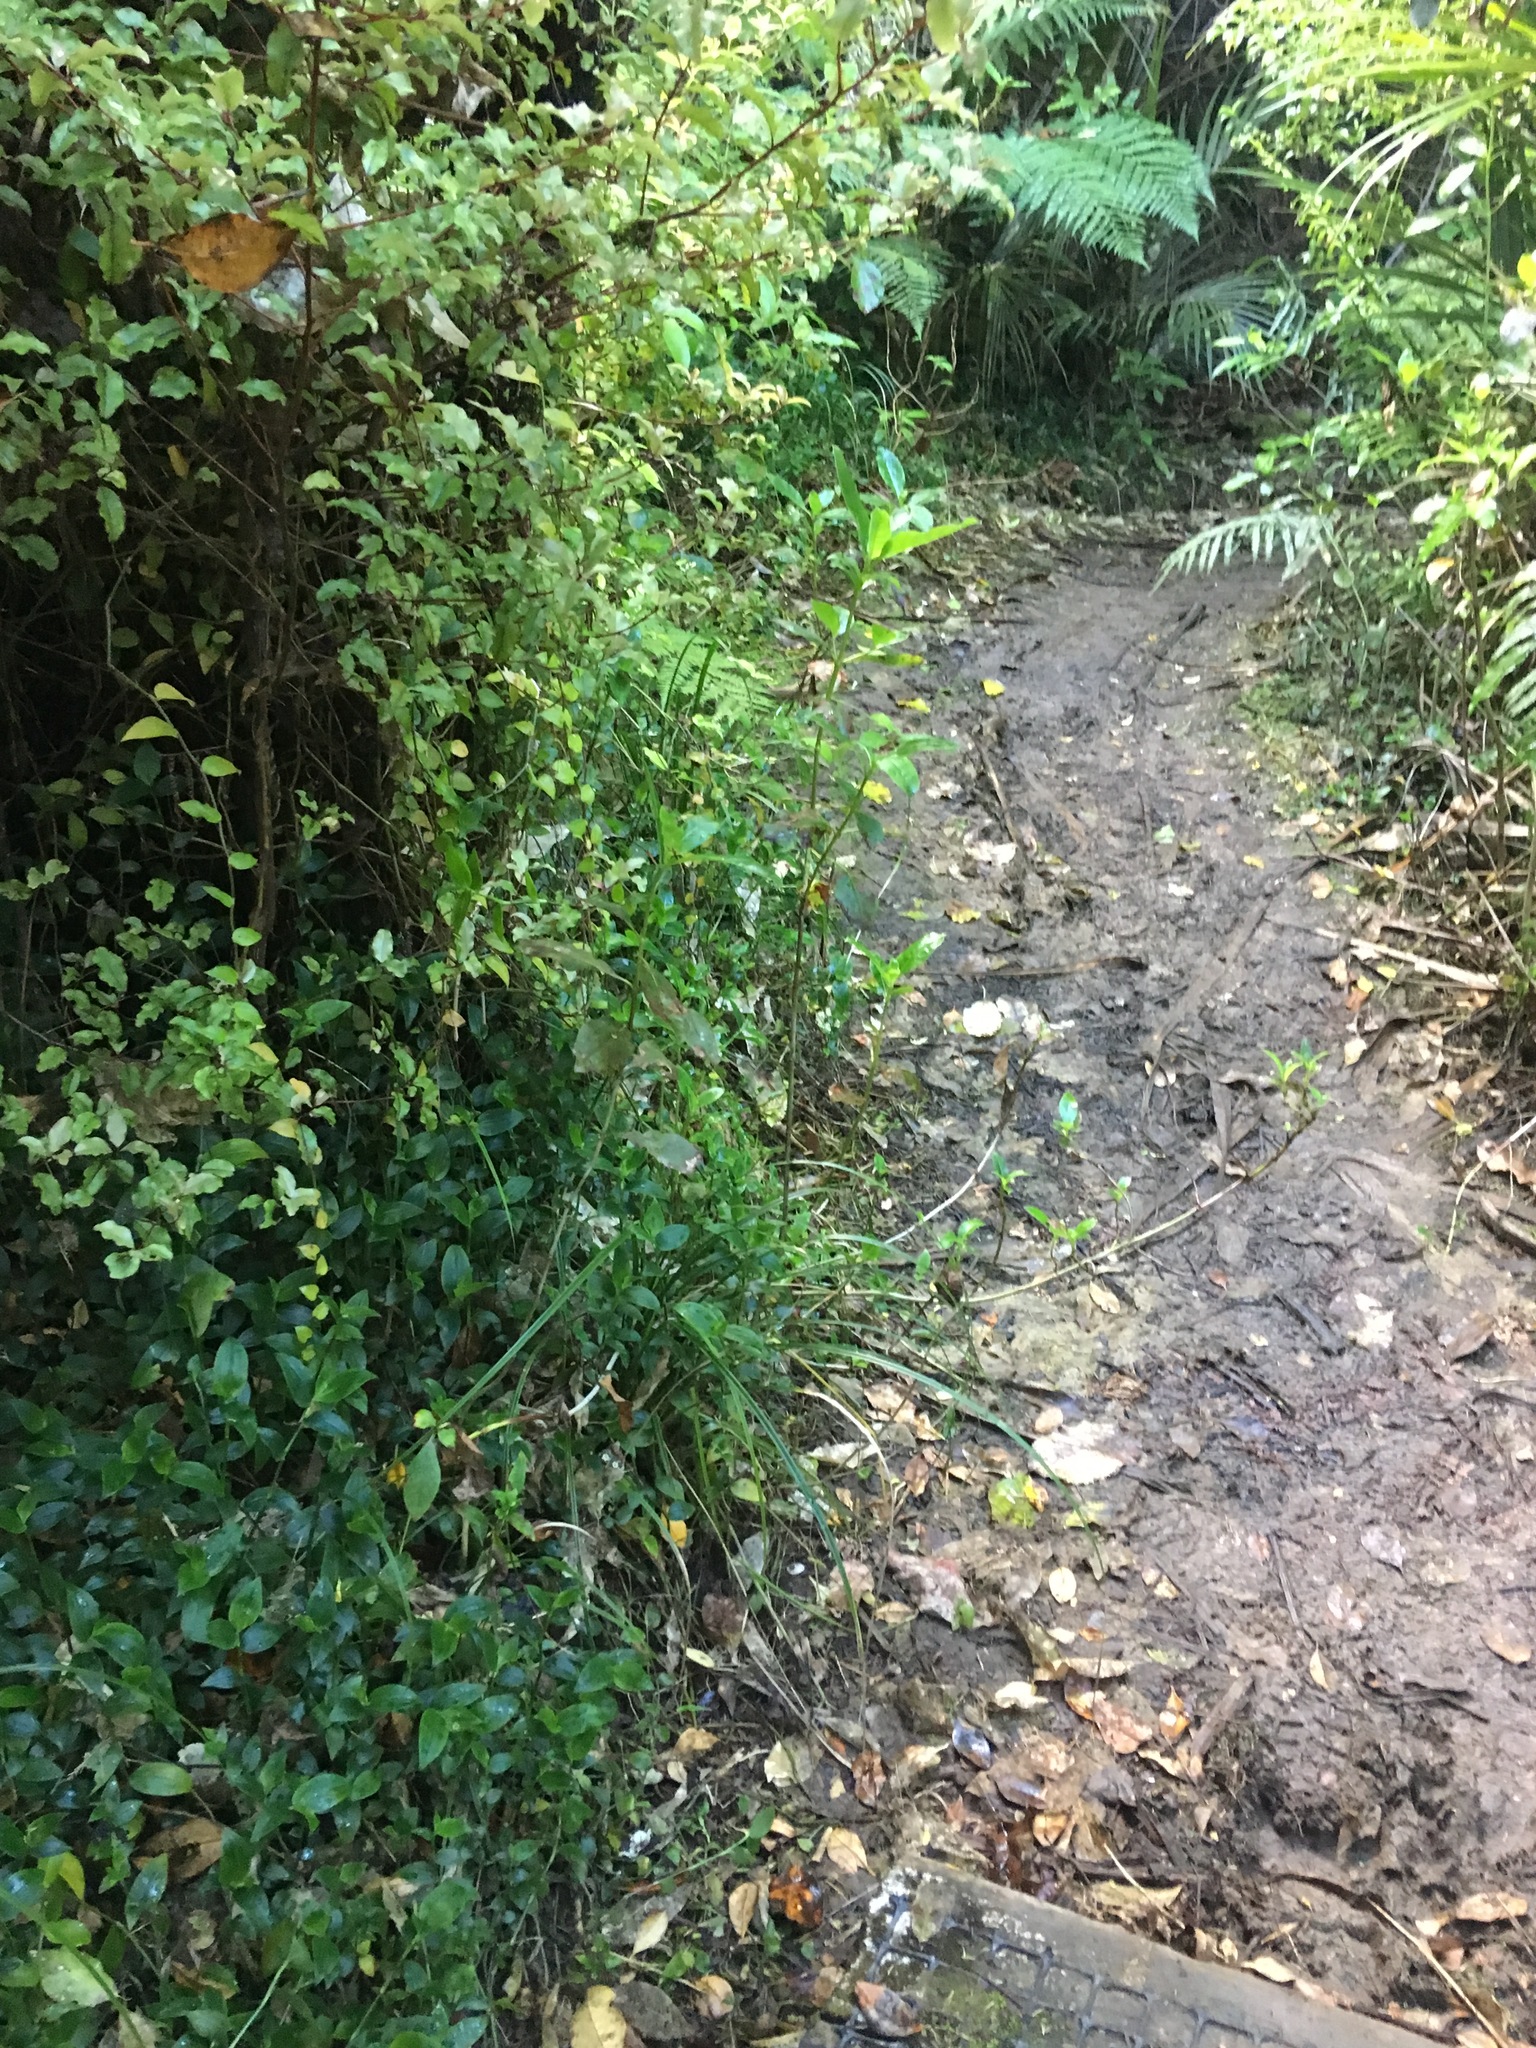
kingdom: Plantae
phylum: Tracheophyta
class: Liliopsida
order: Commelinales
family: Commelinaceae
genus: Tradescantia
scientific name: Tradescantia fluminensis
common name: Wandering-jew
